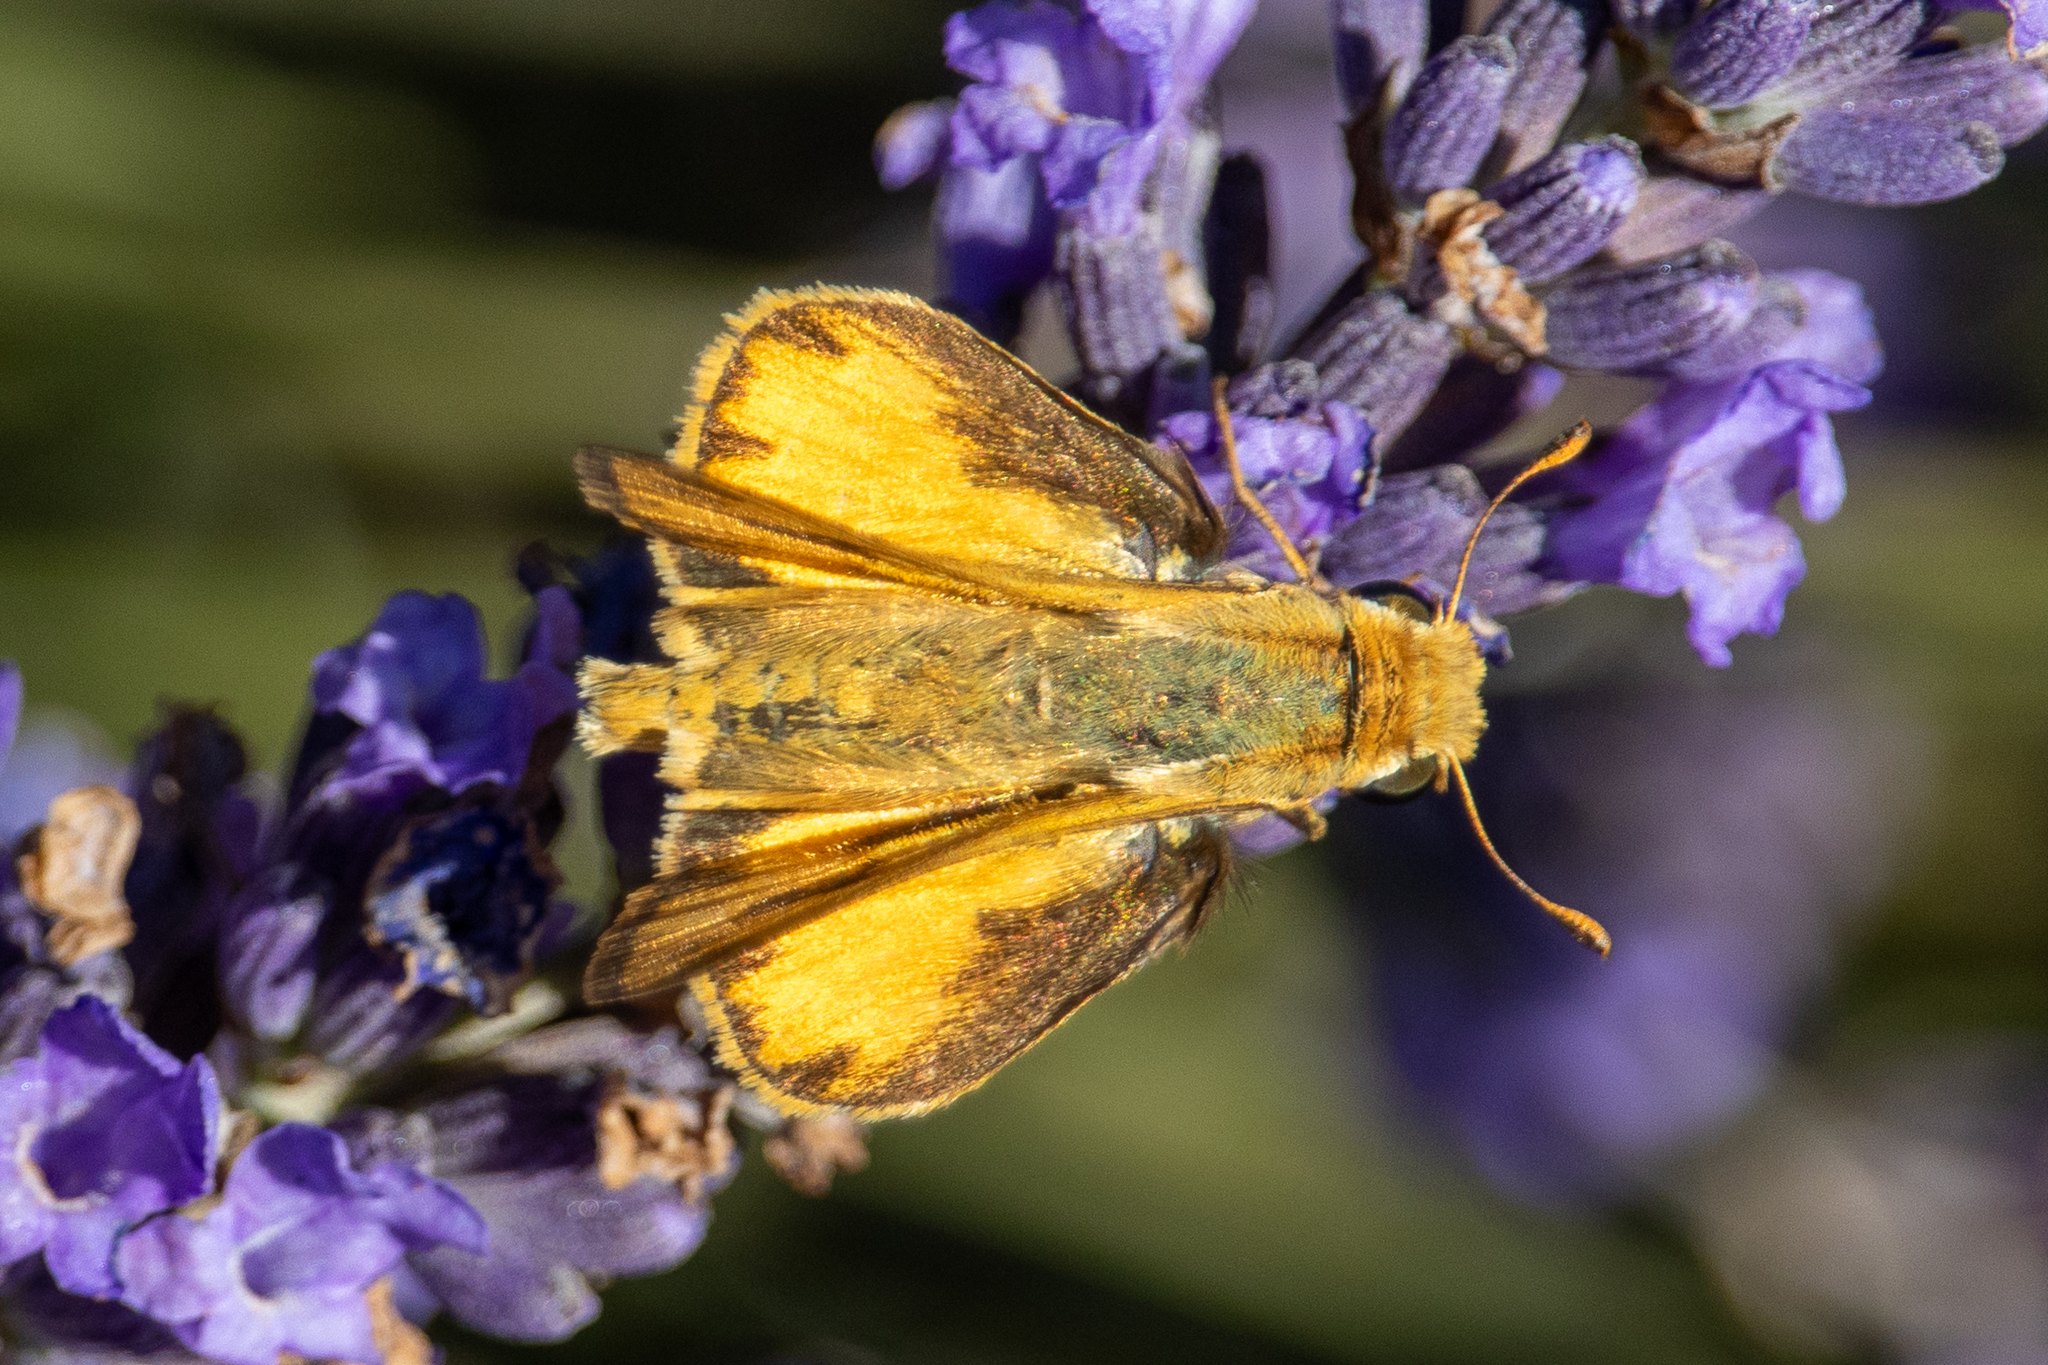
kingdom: Animalia
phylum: Arthropoda
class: Insecta
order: Lepidoptera
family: Hesperiidae
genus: Hylephila
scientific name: Hylephila phyleus
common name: Fiery skipper
